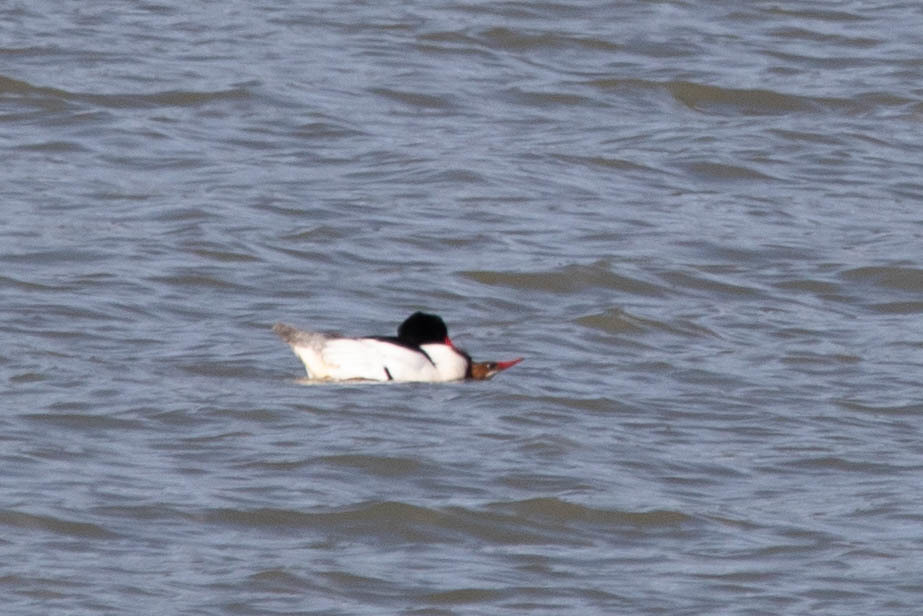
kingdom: Animalia
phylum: Chordata
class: Aves
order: Anseriformes
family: Anatidae
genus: Mergus
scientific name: Mergus merganser
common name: Common merganser
